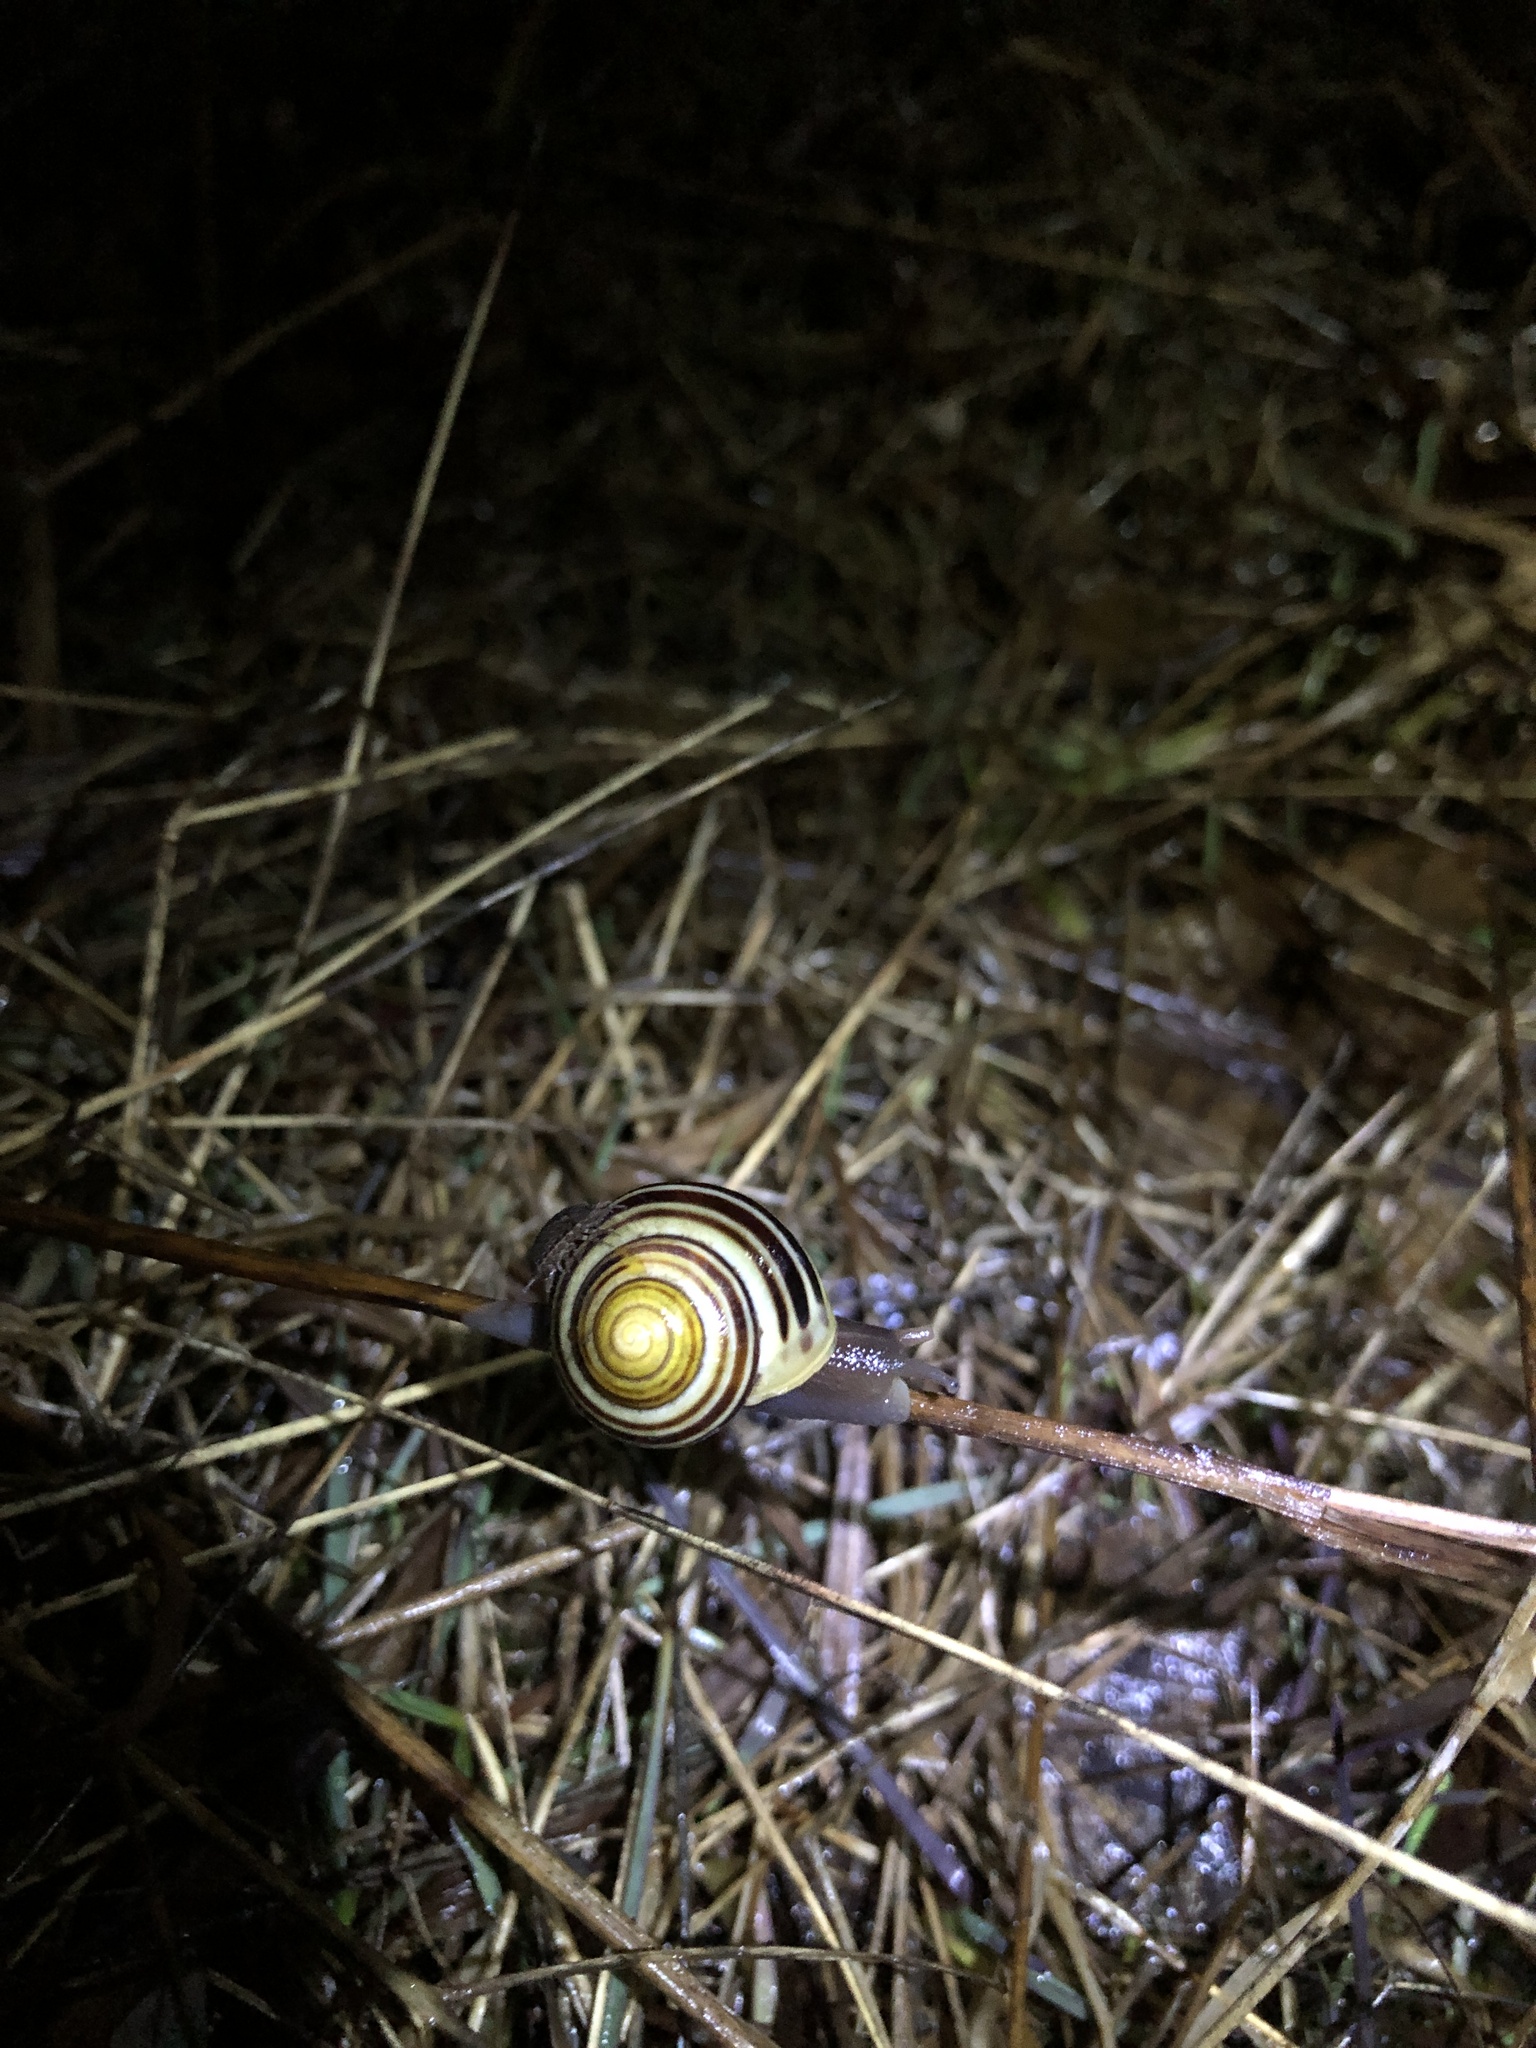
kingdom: Animalia
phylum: Mollusca
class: Gastropoda
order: Stylommatophora
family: Helicidae
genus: Cepaea
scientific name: Cepaea
